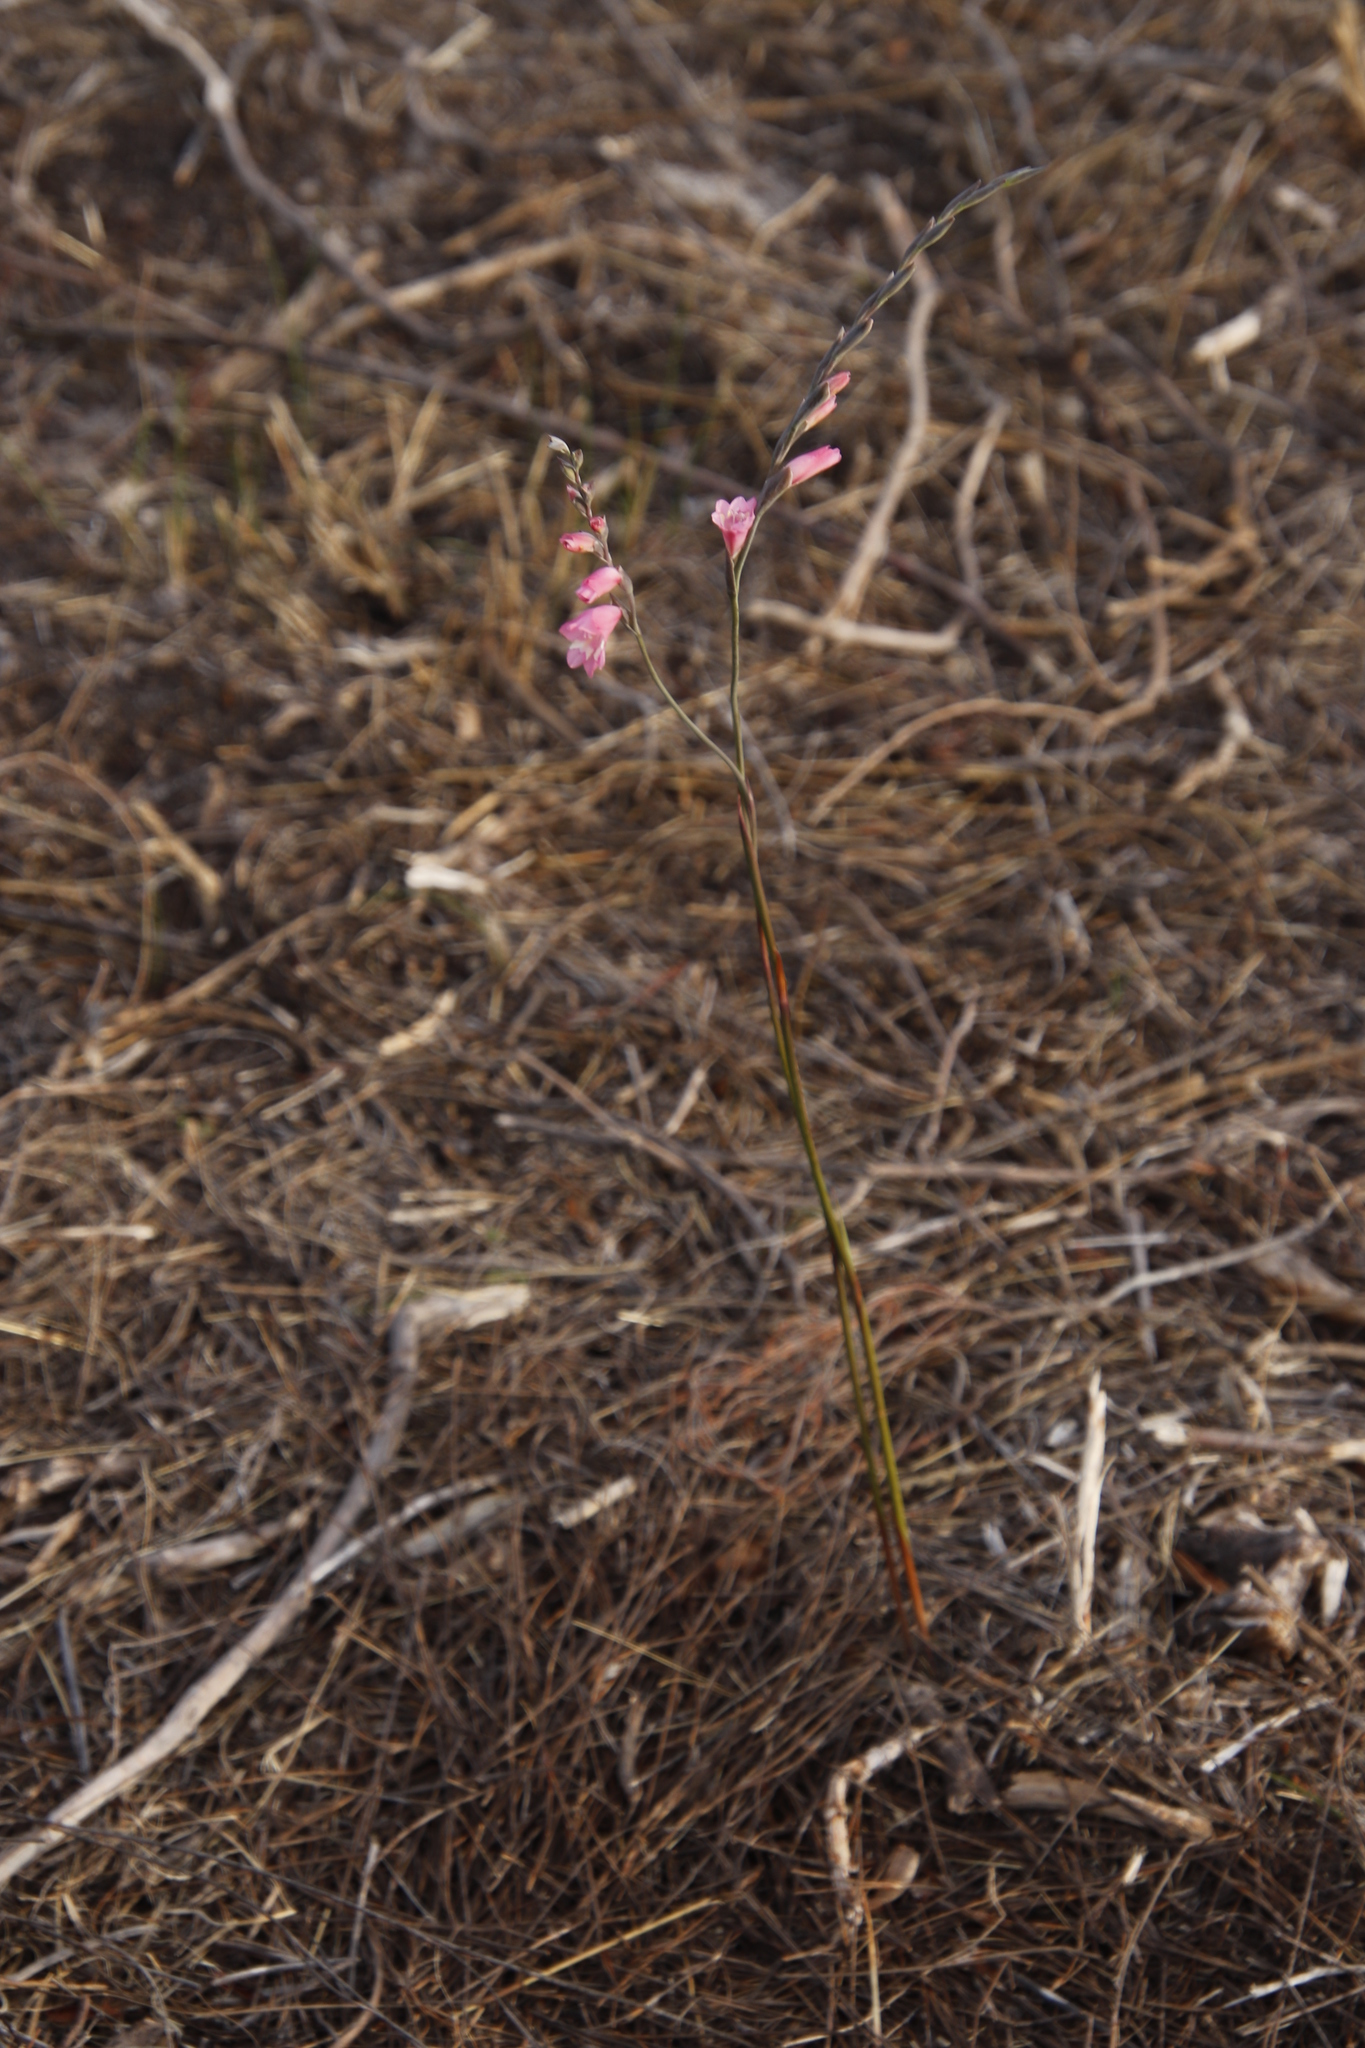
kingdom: Plantae
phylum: Tracheophyta
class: Liliopsida
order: Asparagales
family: Iridaceae
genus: Gladiolus
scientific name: Gladiolus brevifolius
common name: March pypie
